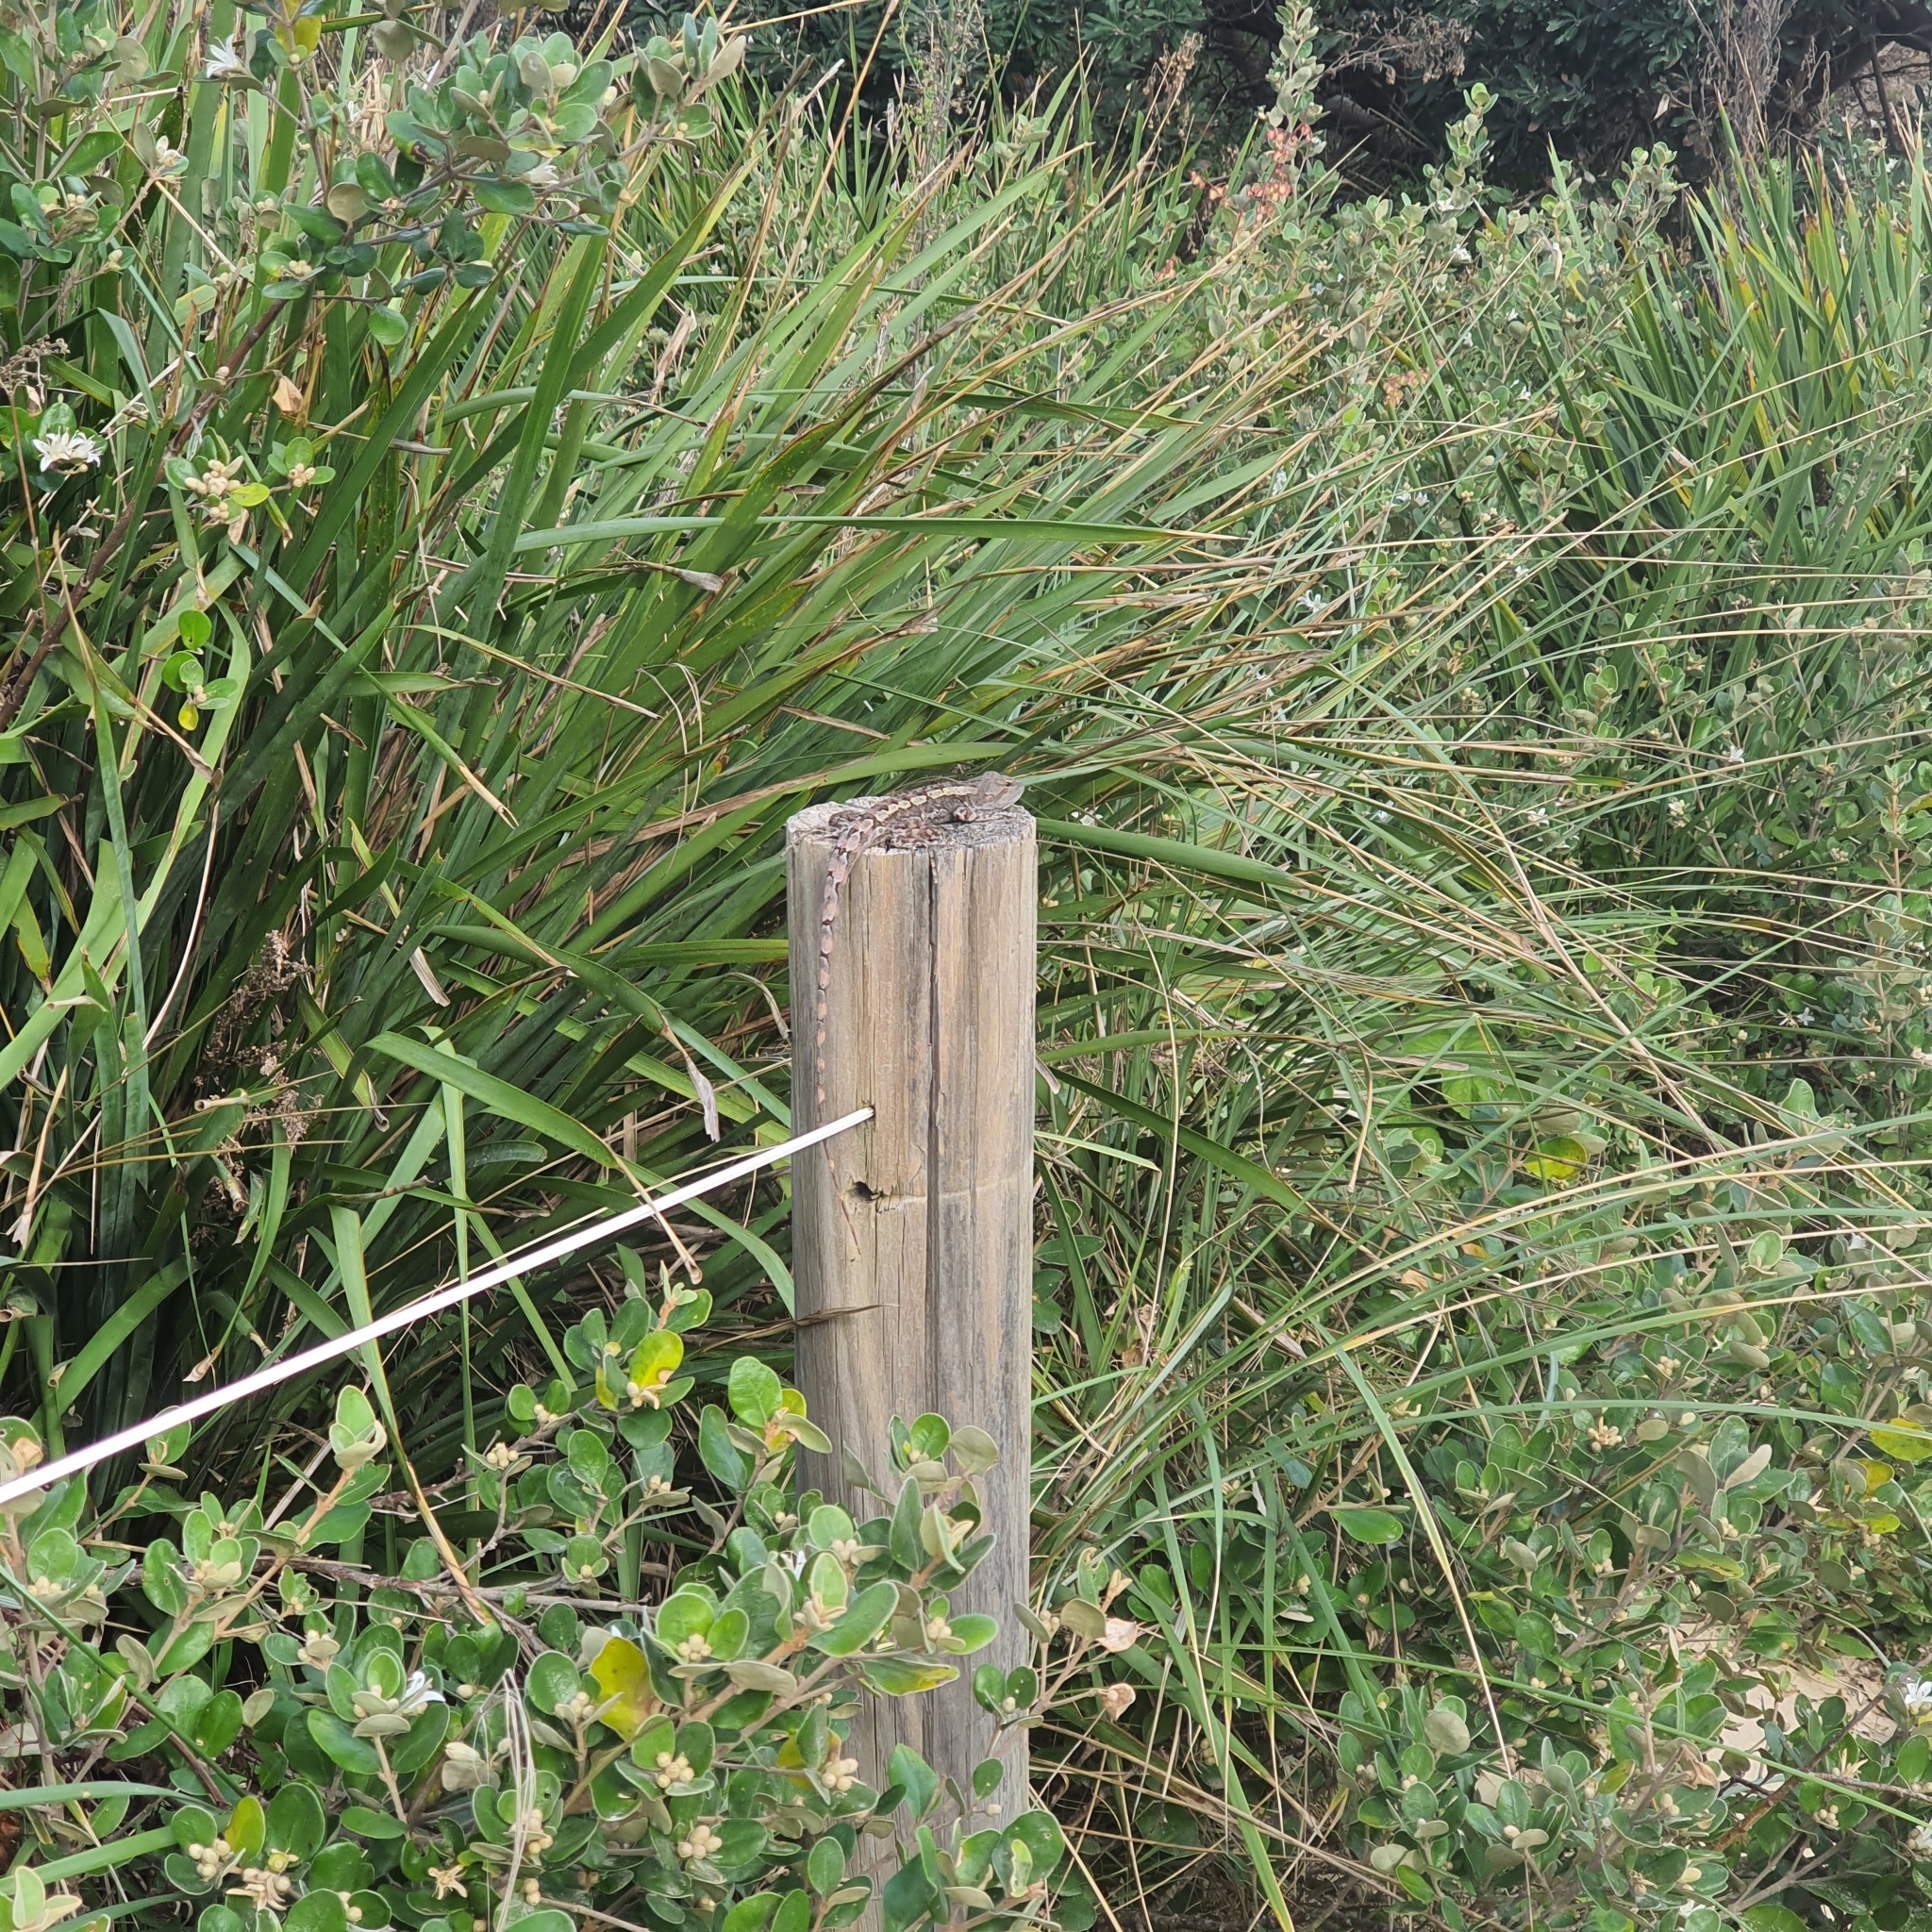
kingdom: Animalia
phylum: Chordata
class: Squamata
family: Agamidae
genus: Amphibolurus
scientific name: Amphibolurus muricatus
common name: Jacky lizard
